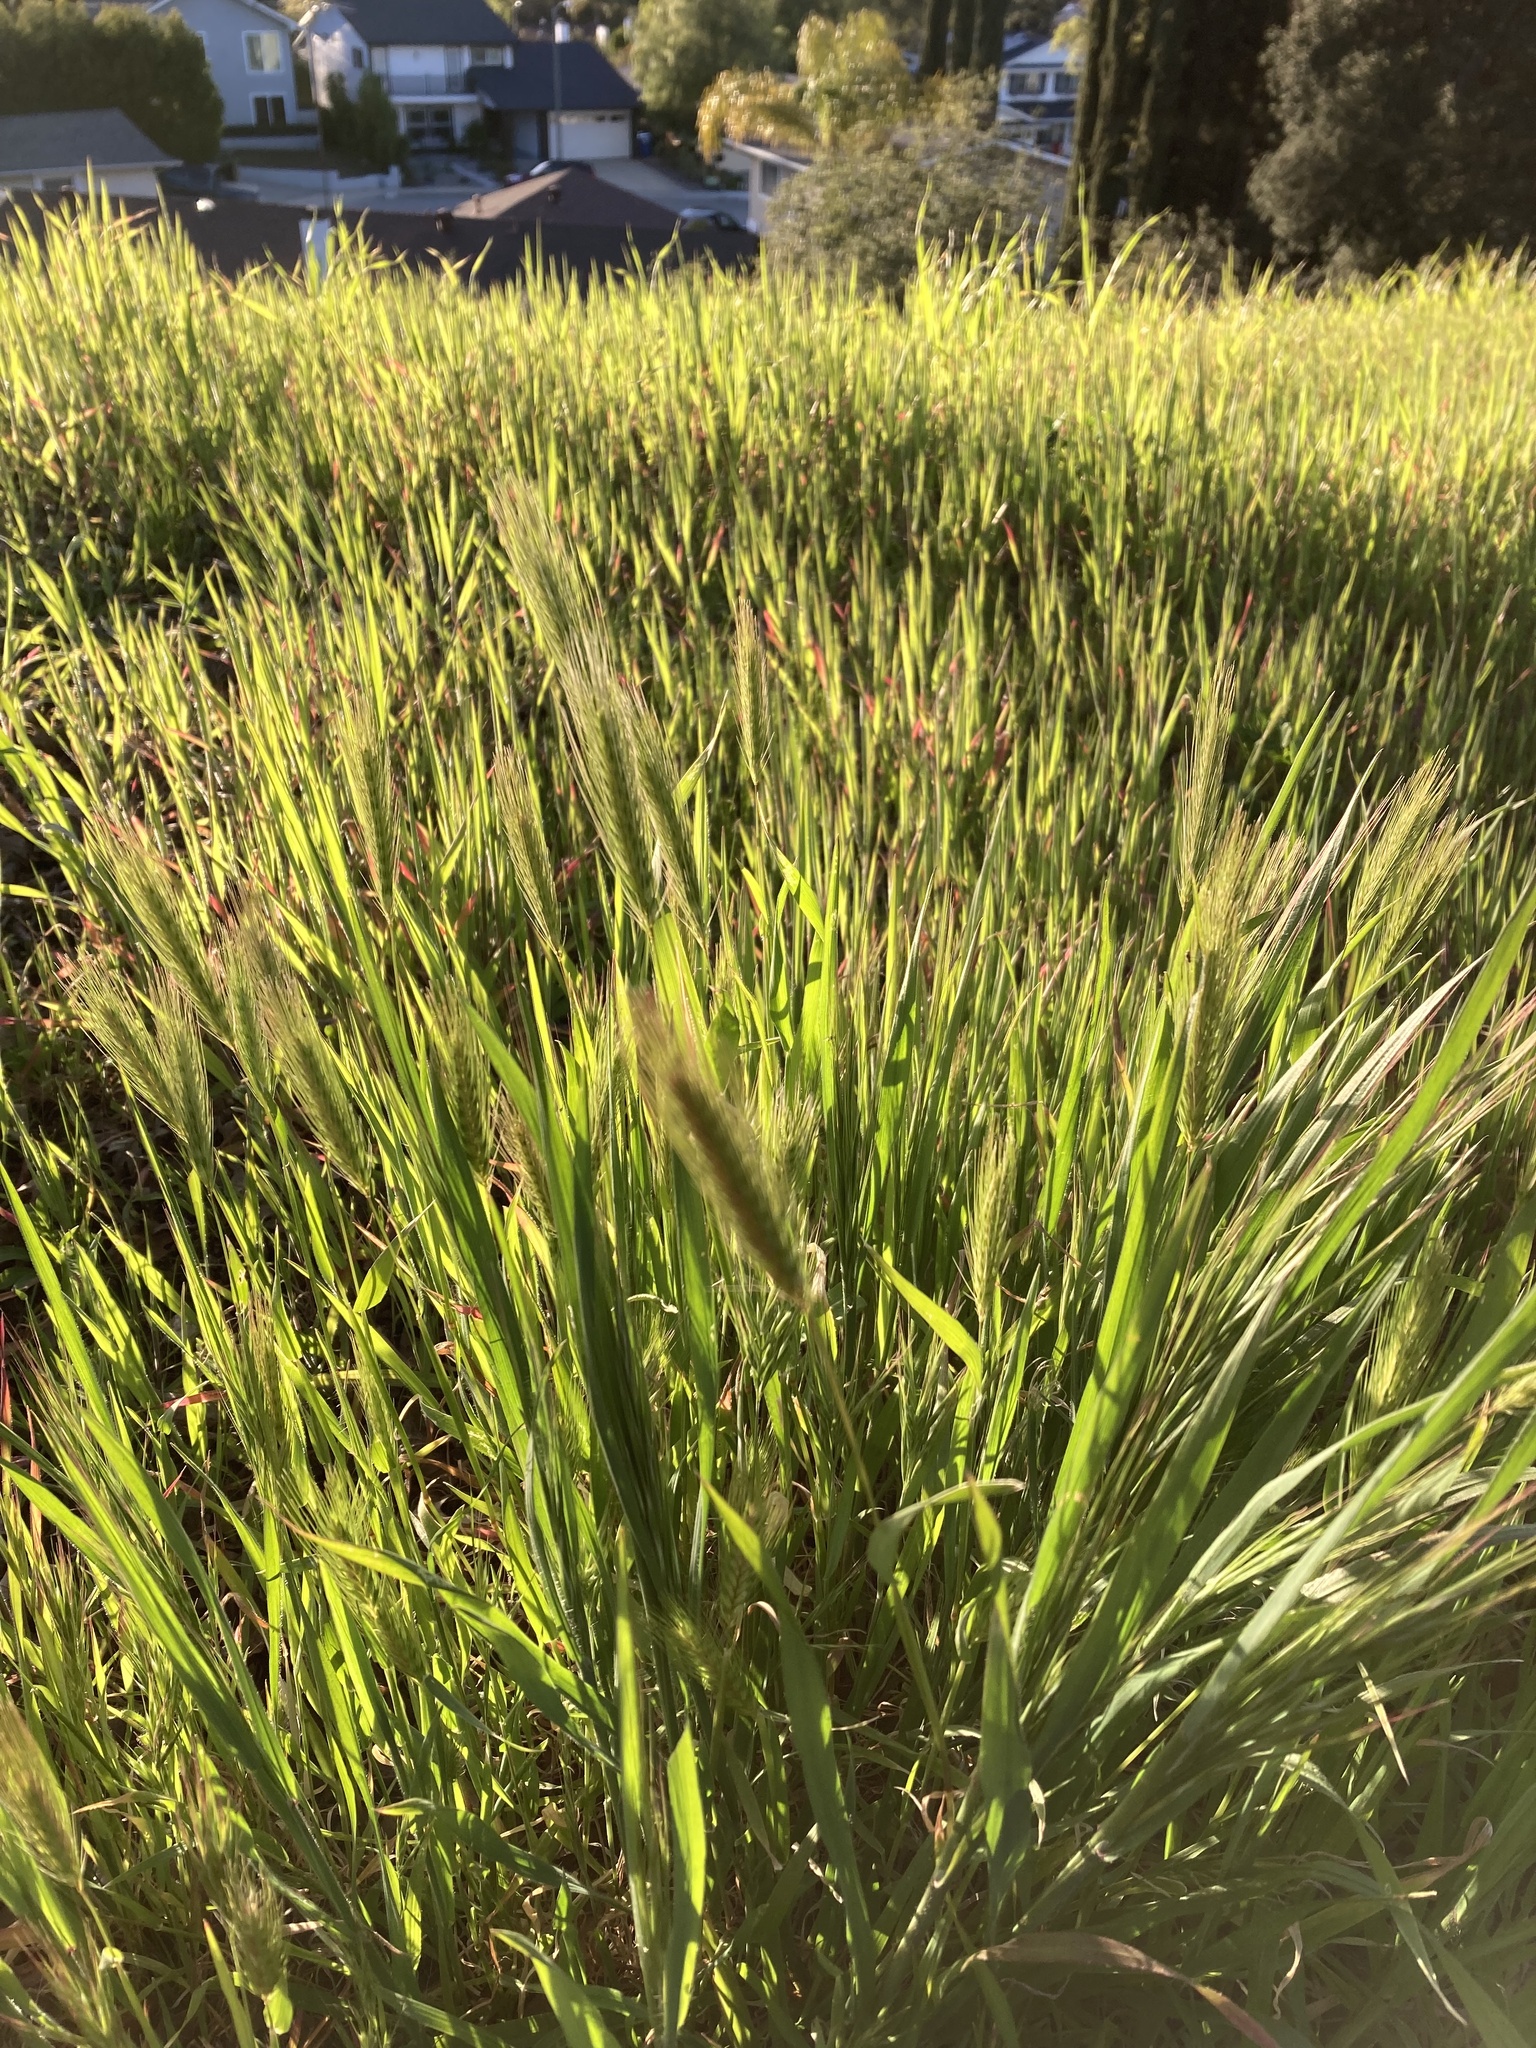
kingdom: Plantae
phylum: Tracheophyta
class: Liliopsida
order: Poales
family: Poaceae
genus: Hordeum
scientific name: Hordeum murinum
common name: Wall barley
